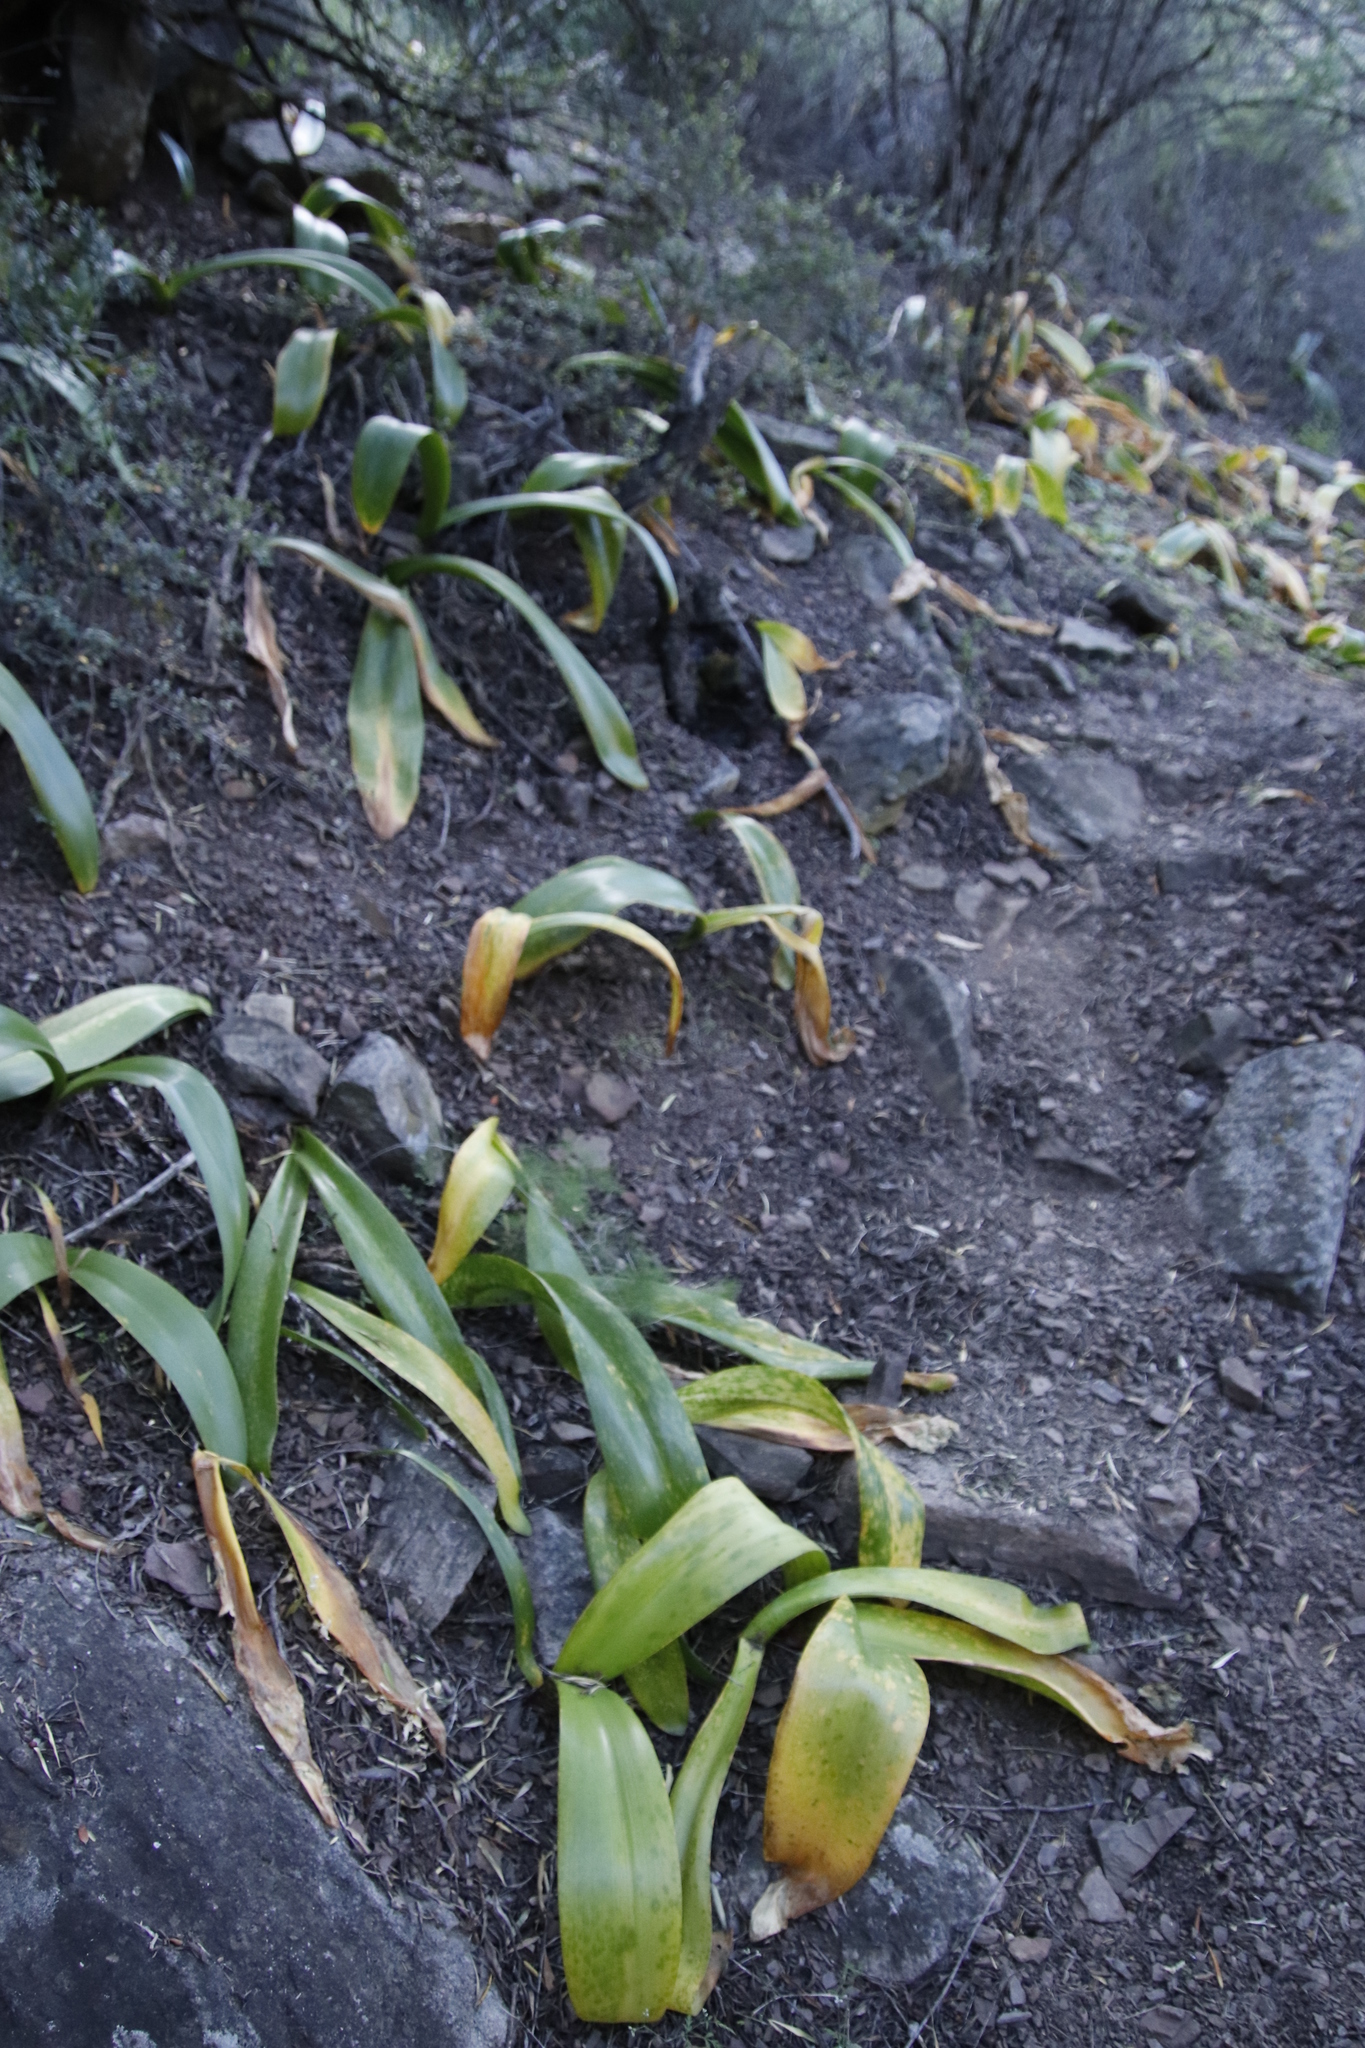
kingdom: Plantae
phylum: Tracheophyta
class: Liliopsida
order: Asparagales
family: Amaryllidaceae
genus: Haemanthus
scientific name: Haemanthus coccineus
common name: Cape-tulip
